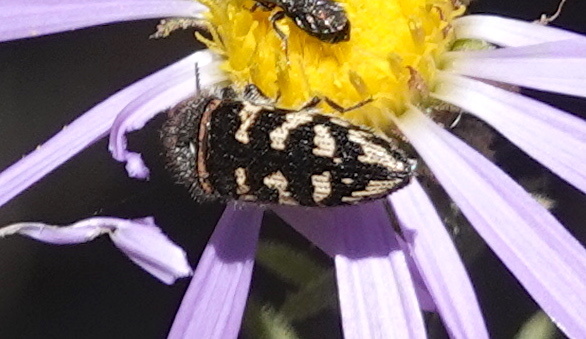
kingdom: Animalia
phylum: Arthropoda
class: Insecta
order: Coleoptera
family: Buprestidae
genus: Acmaeodera
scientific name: Acmaeodera bowditchi
